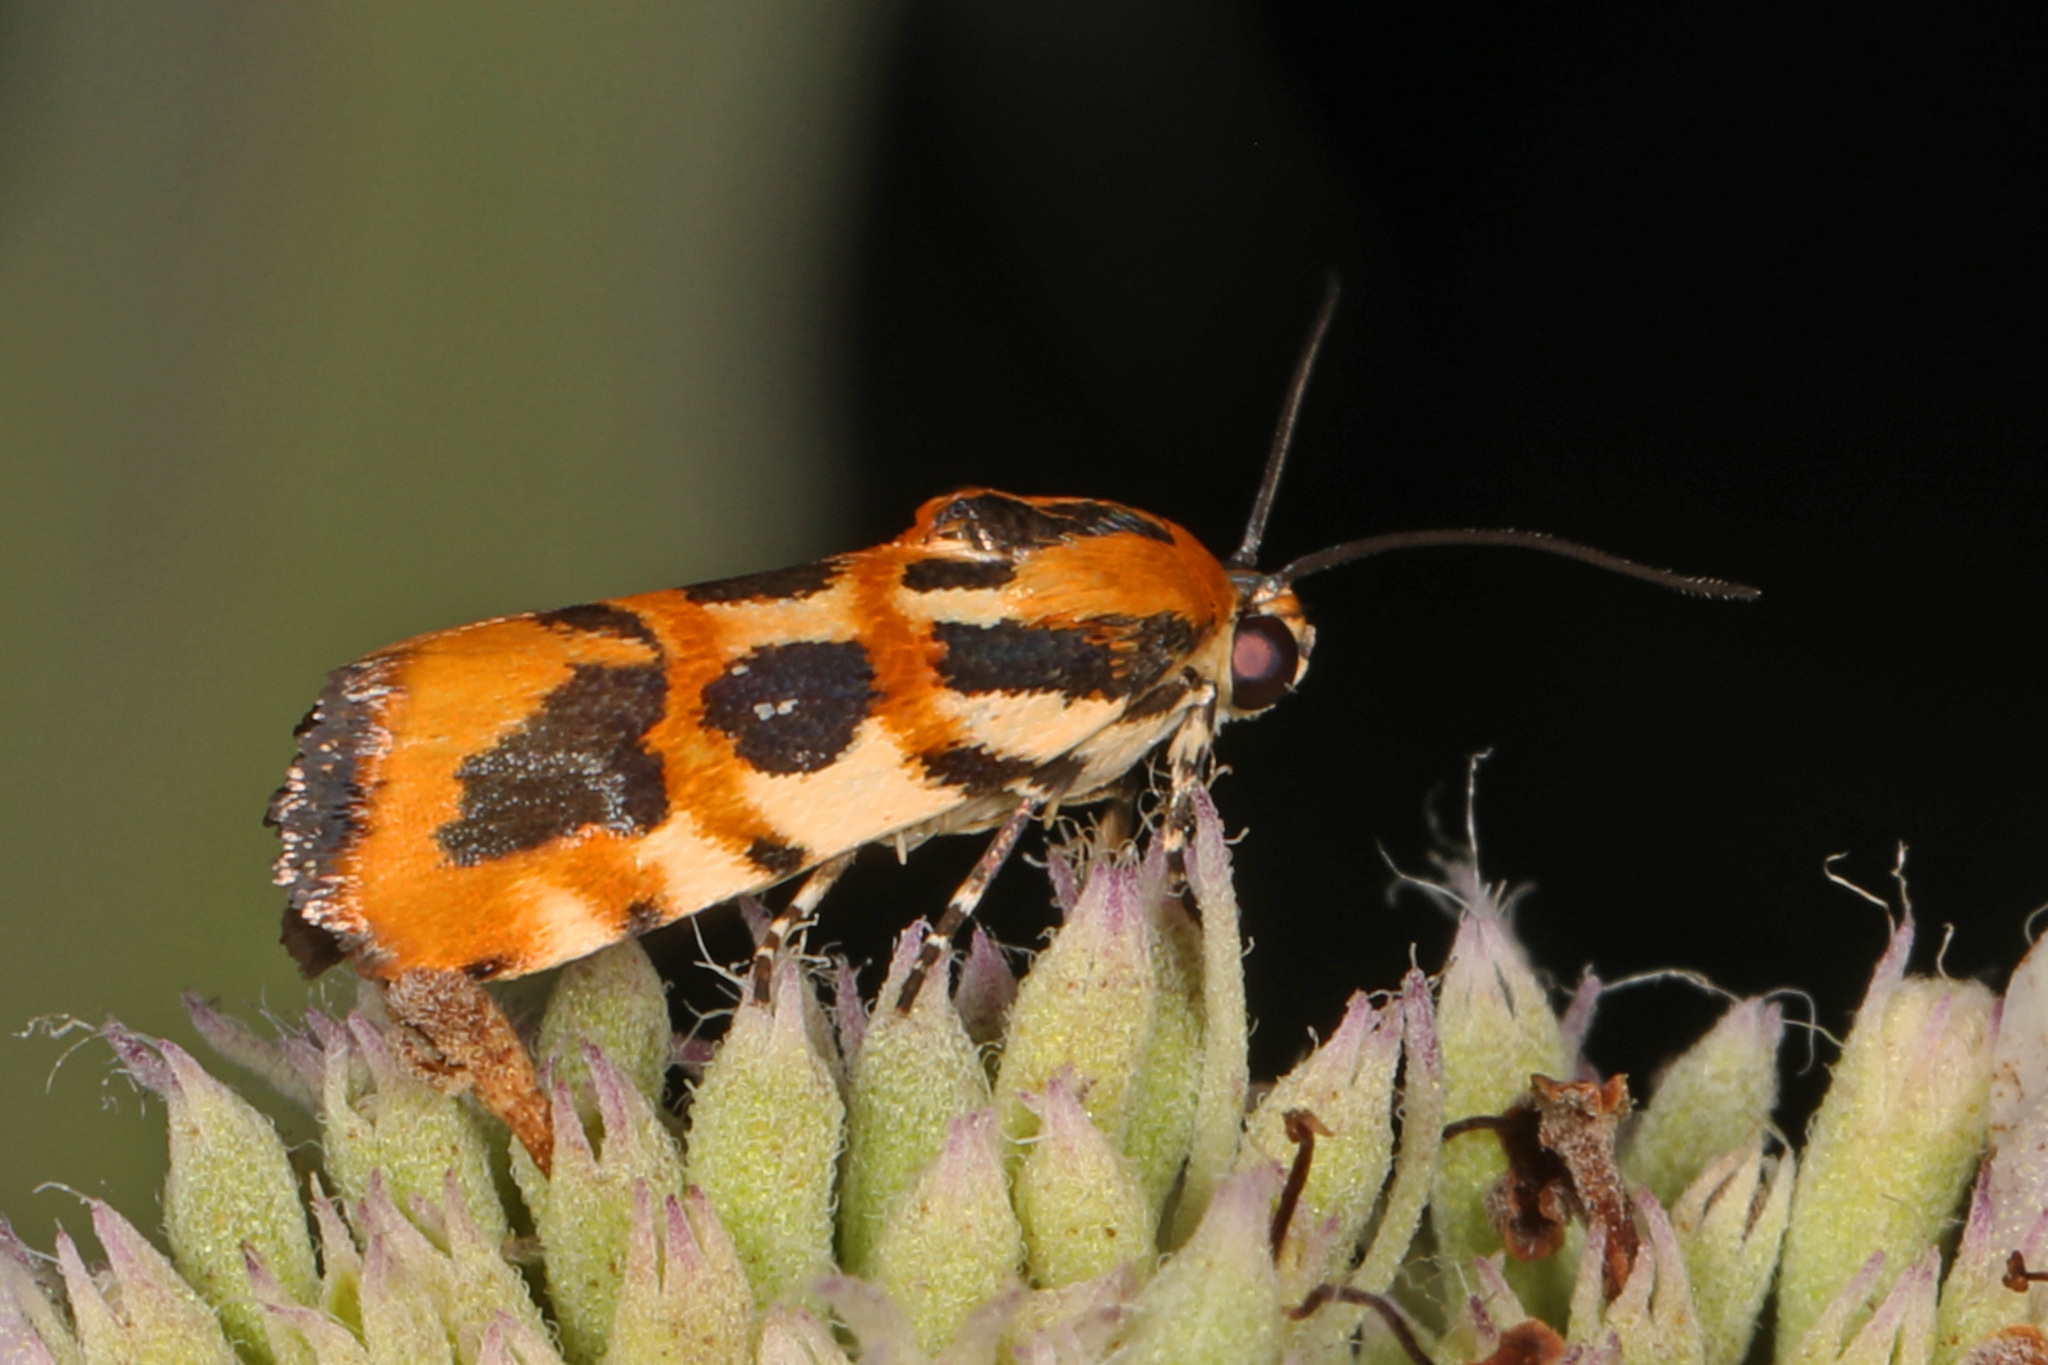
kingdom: Animalia
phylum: Arthropoda
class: Insecta
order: Lepidoptera
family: Noctuidae
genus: Acontia
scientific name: Acontia leo
